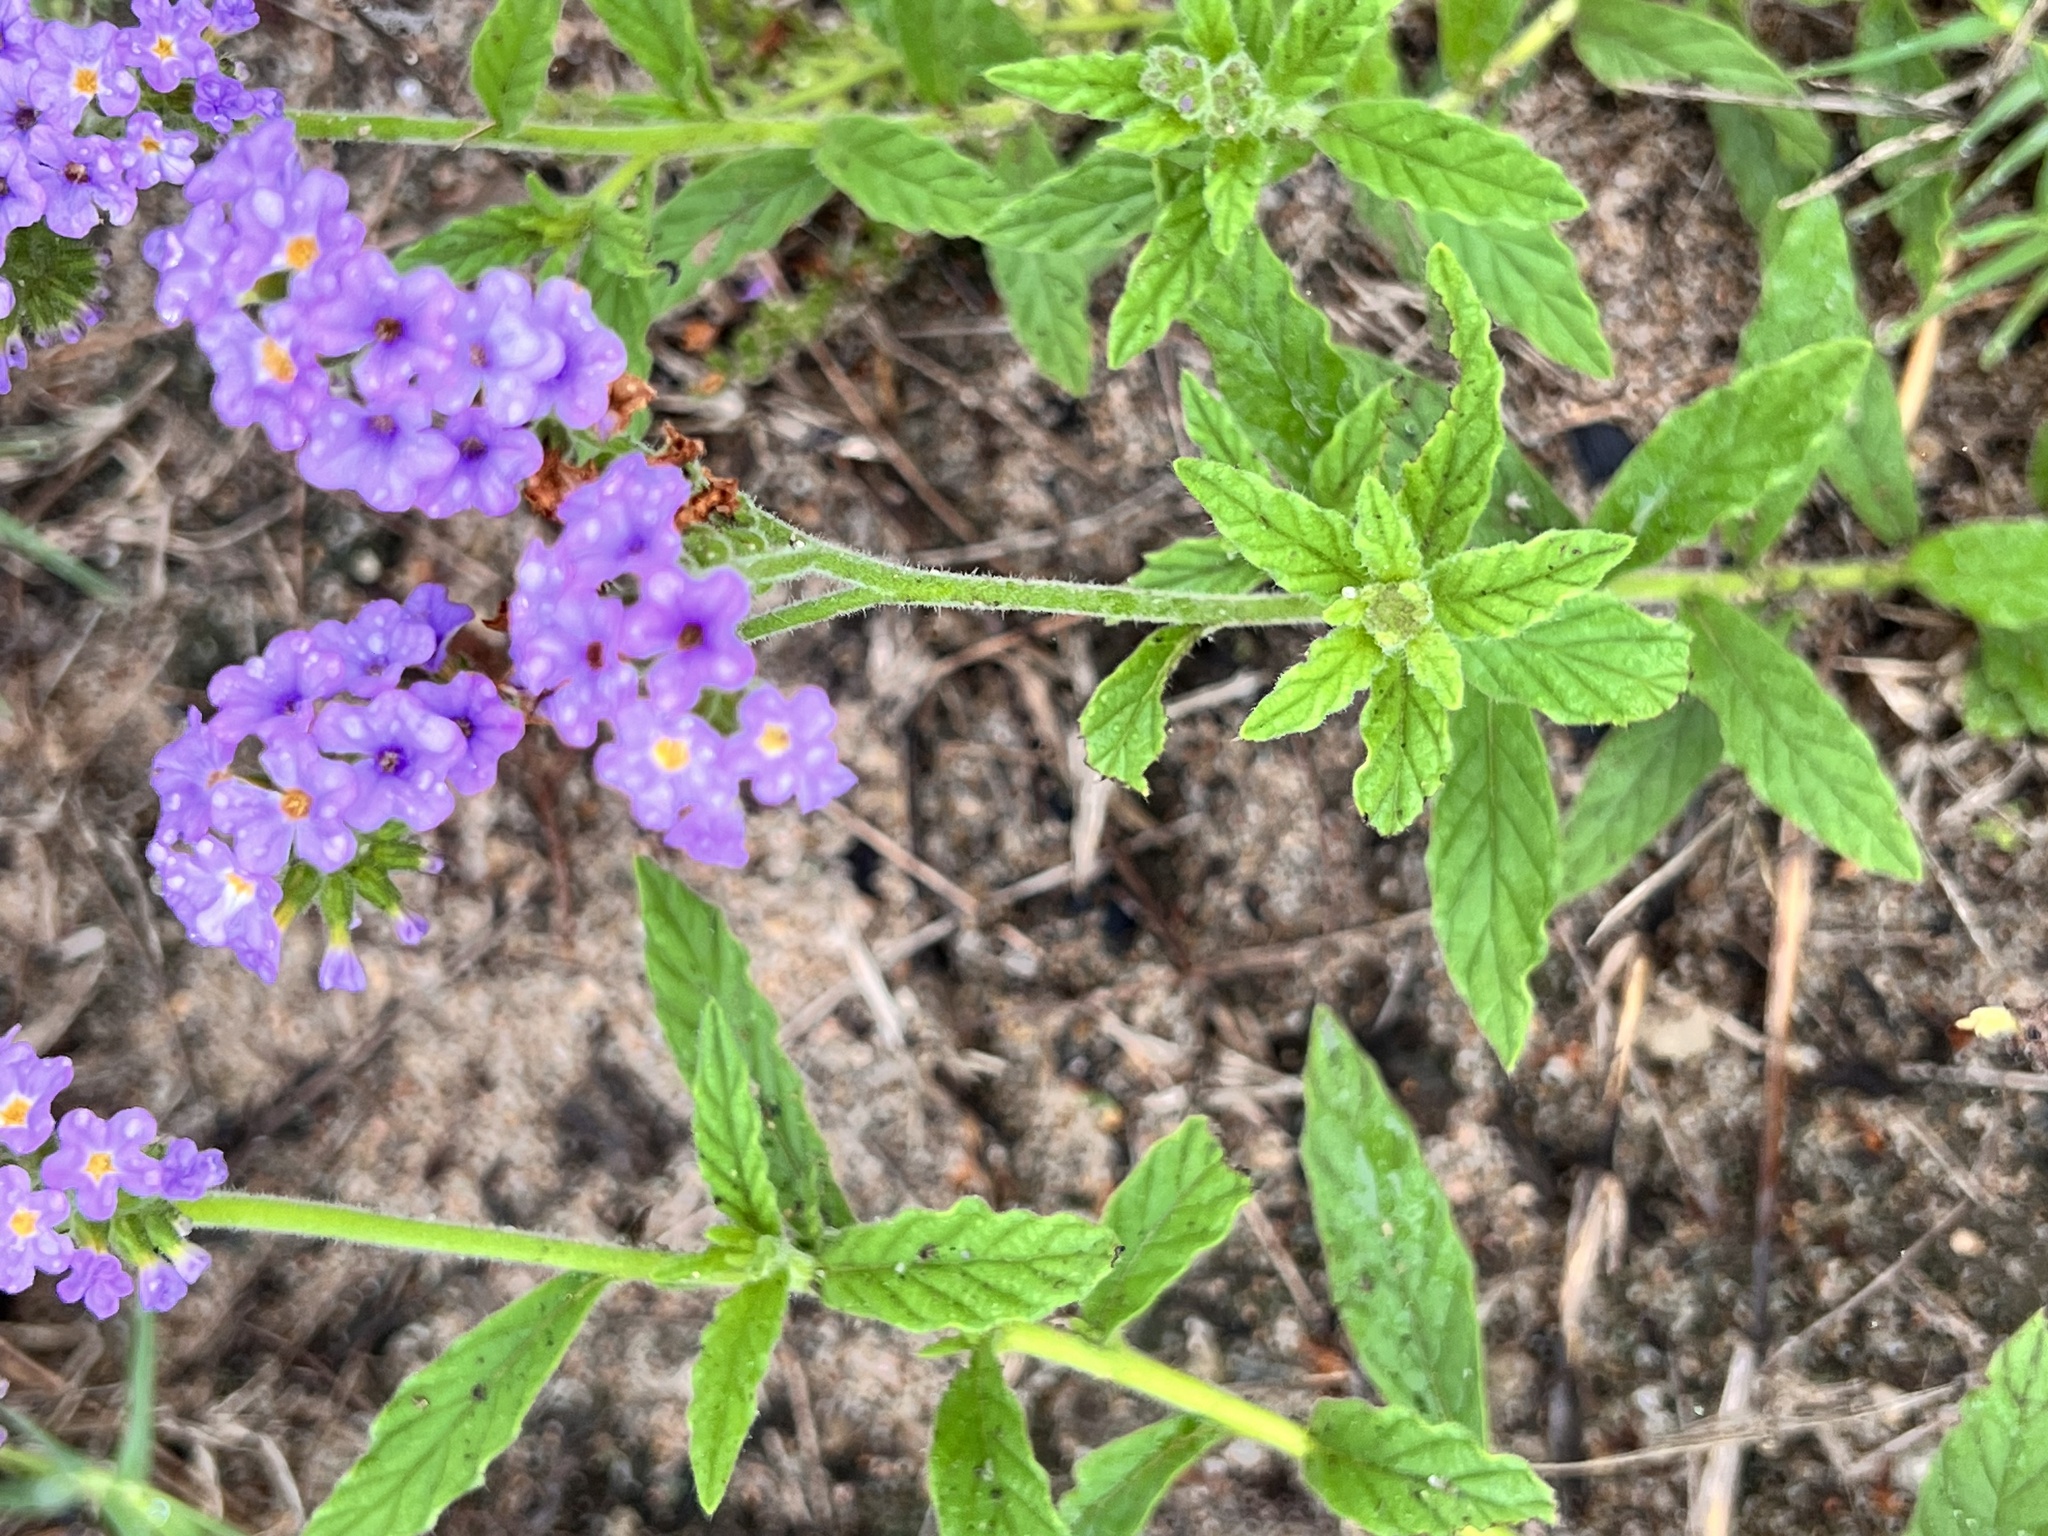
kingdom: Plantae
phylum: Tracheophyta
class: Magnoliopsida
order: Boraginales
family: Heliotropiaceae
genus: Heliotropium
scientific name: Heliotropium amplexicaule
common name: Clasping heliotrope
